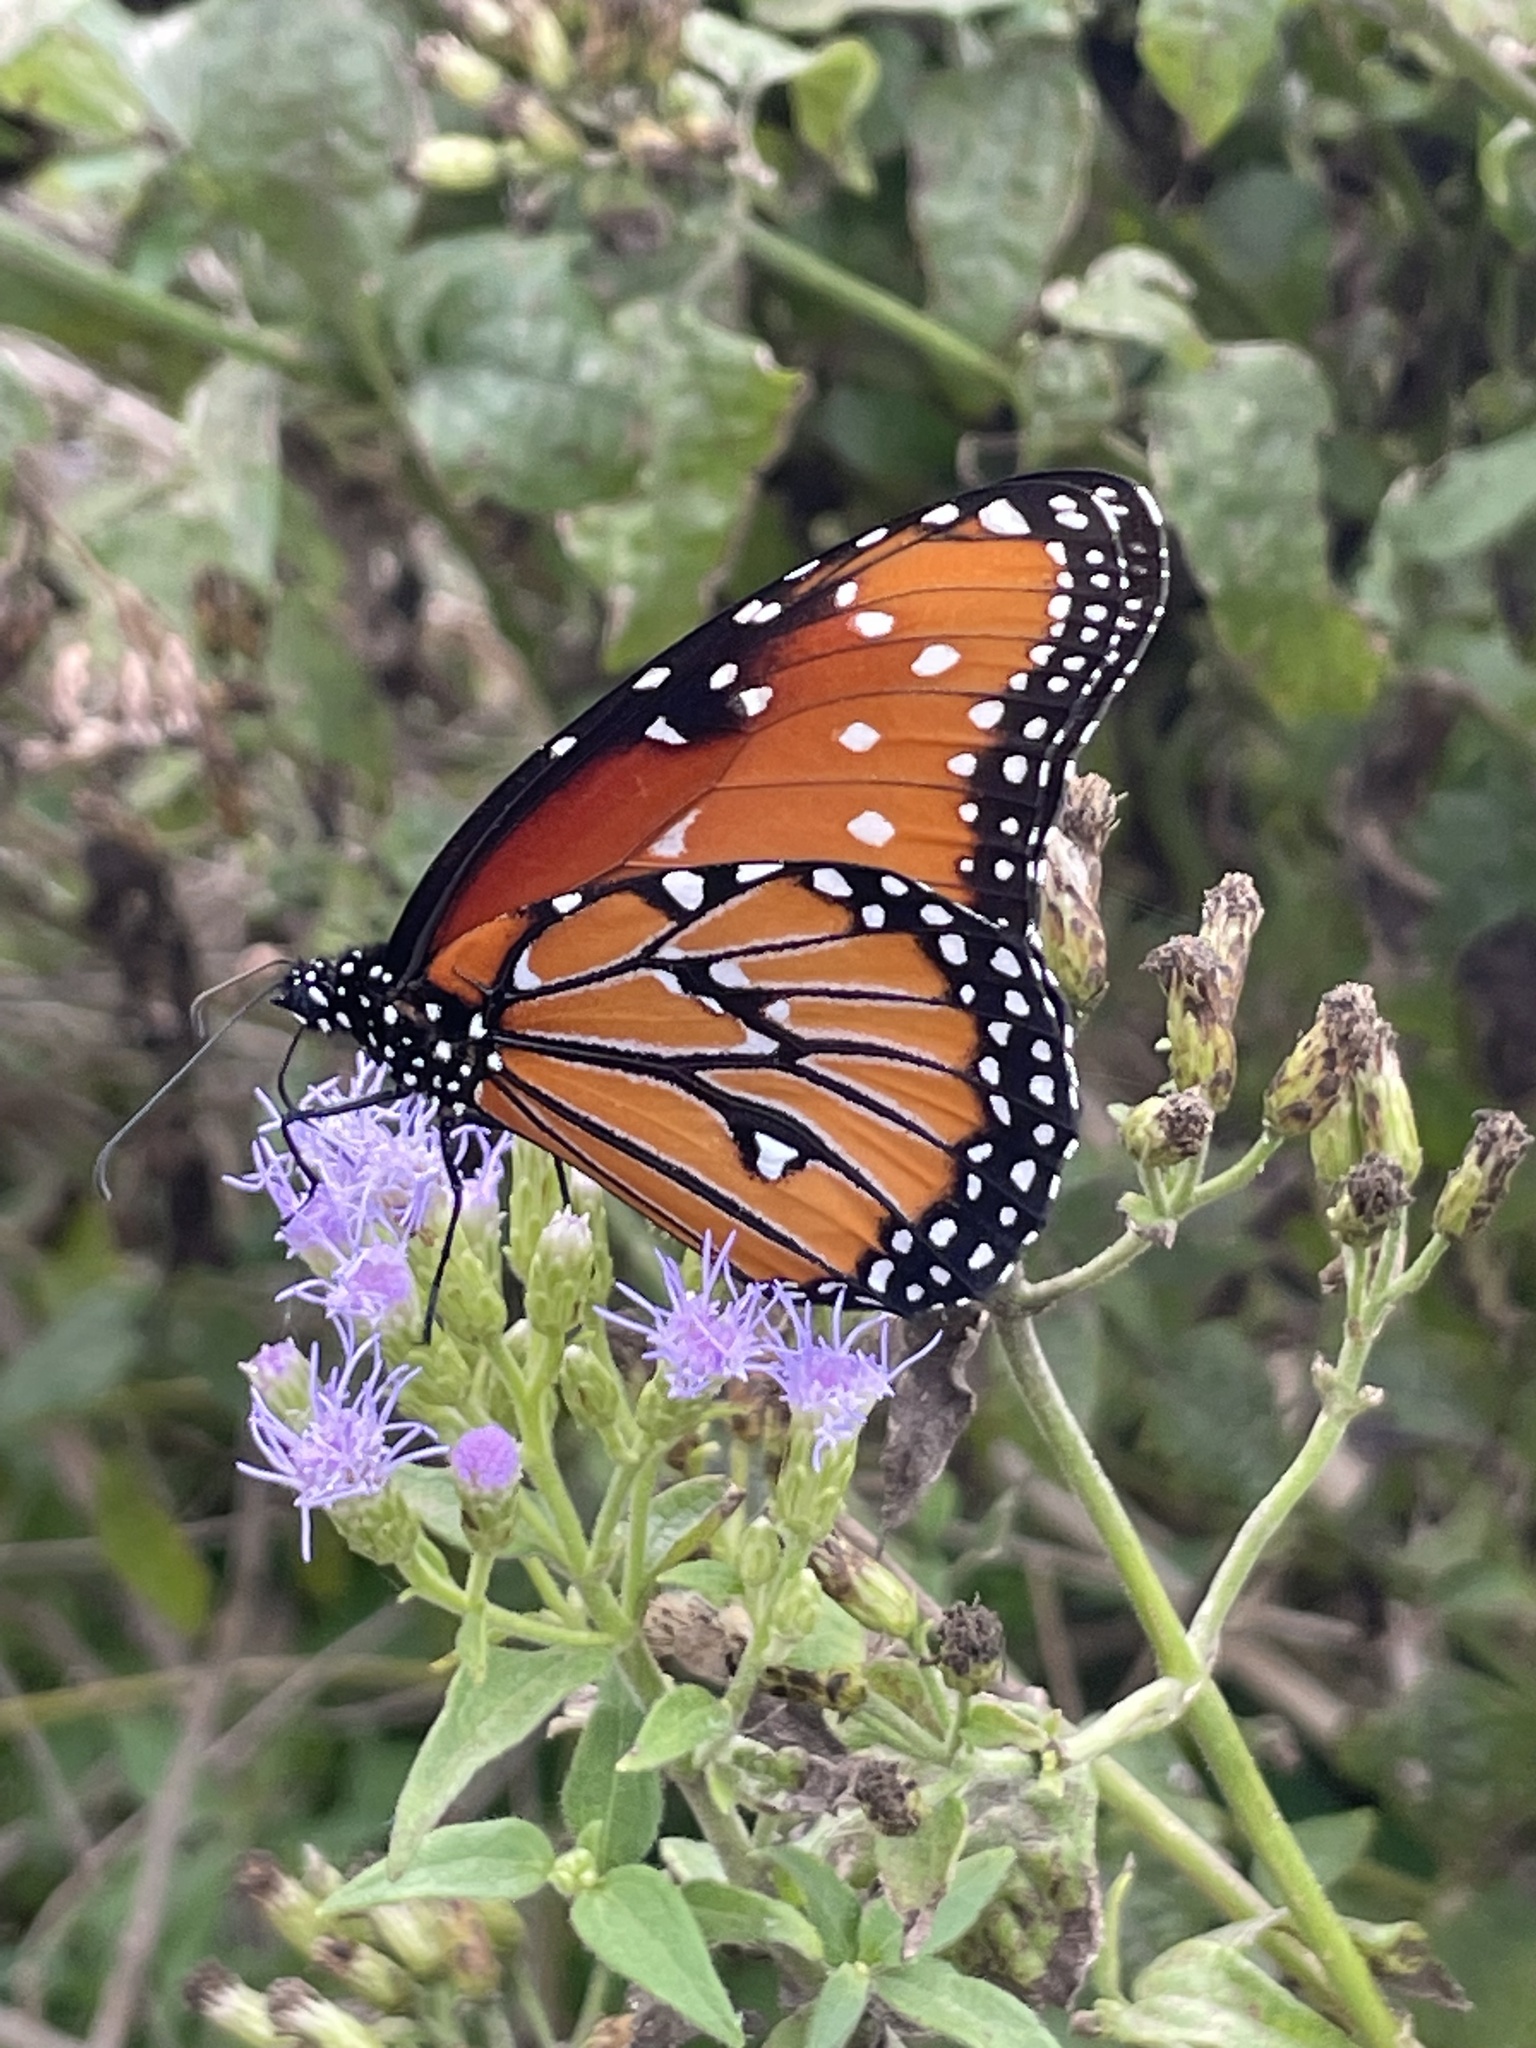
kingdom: Animalia
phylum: Arthropoda
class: Insecta
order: Lepidoptera
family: Nymphalidae
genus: Danaus
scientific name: Danaus gilippus
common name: Queen
